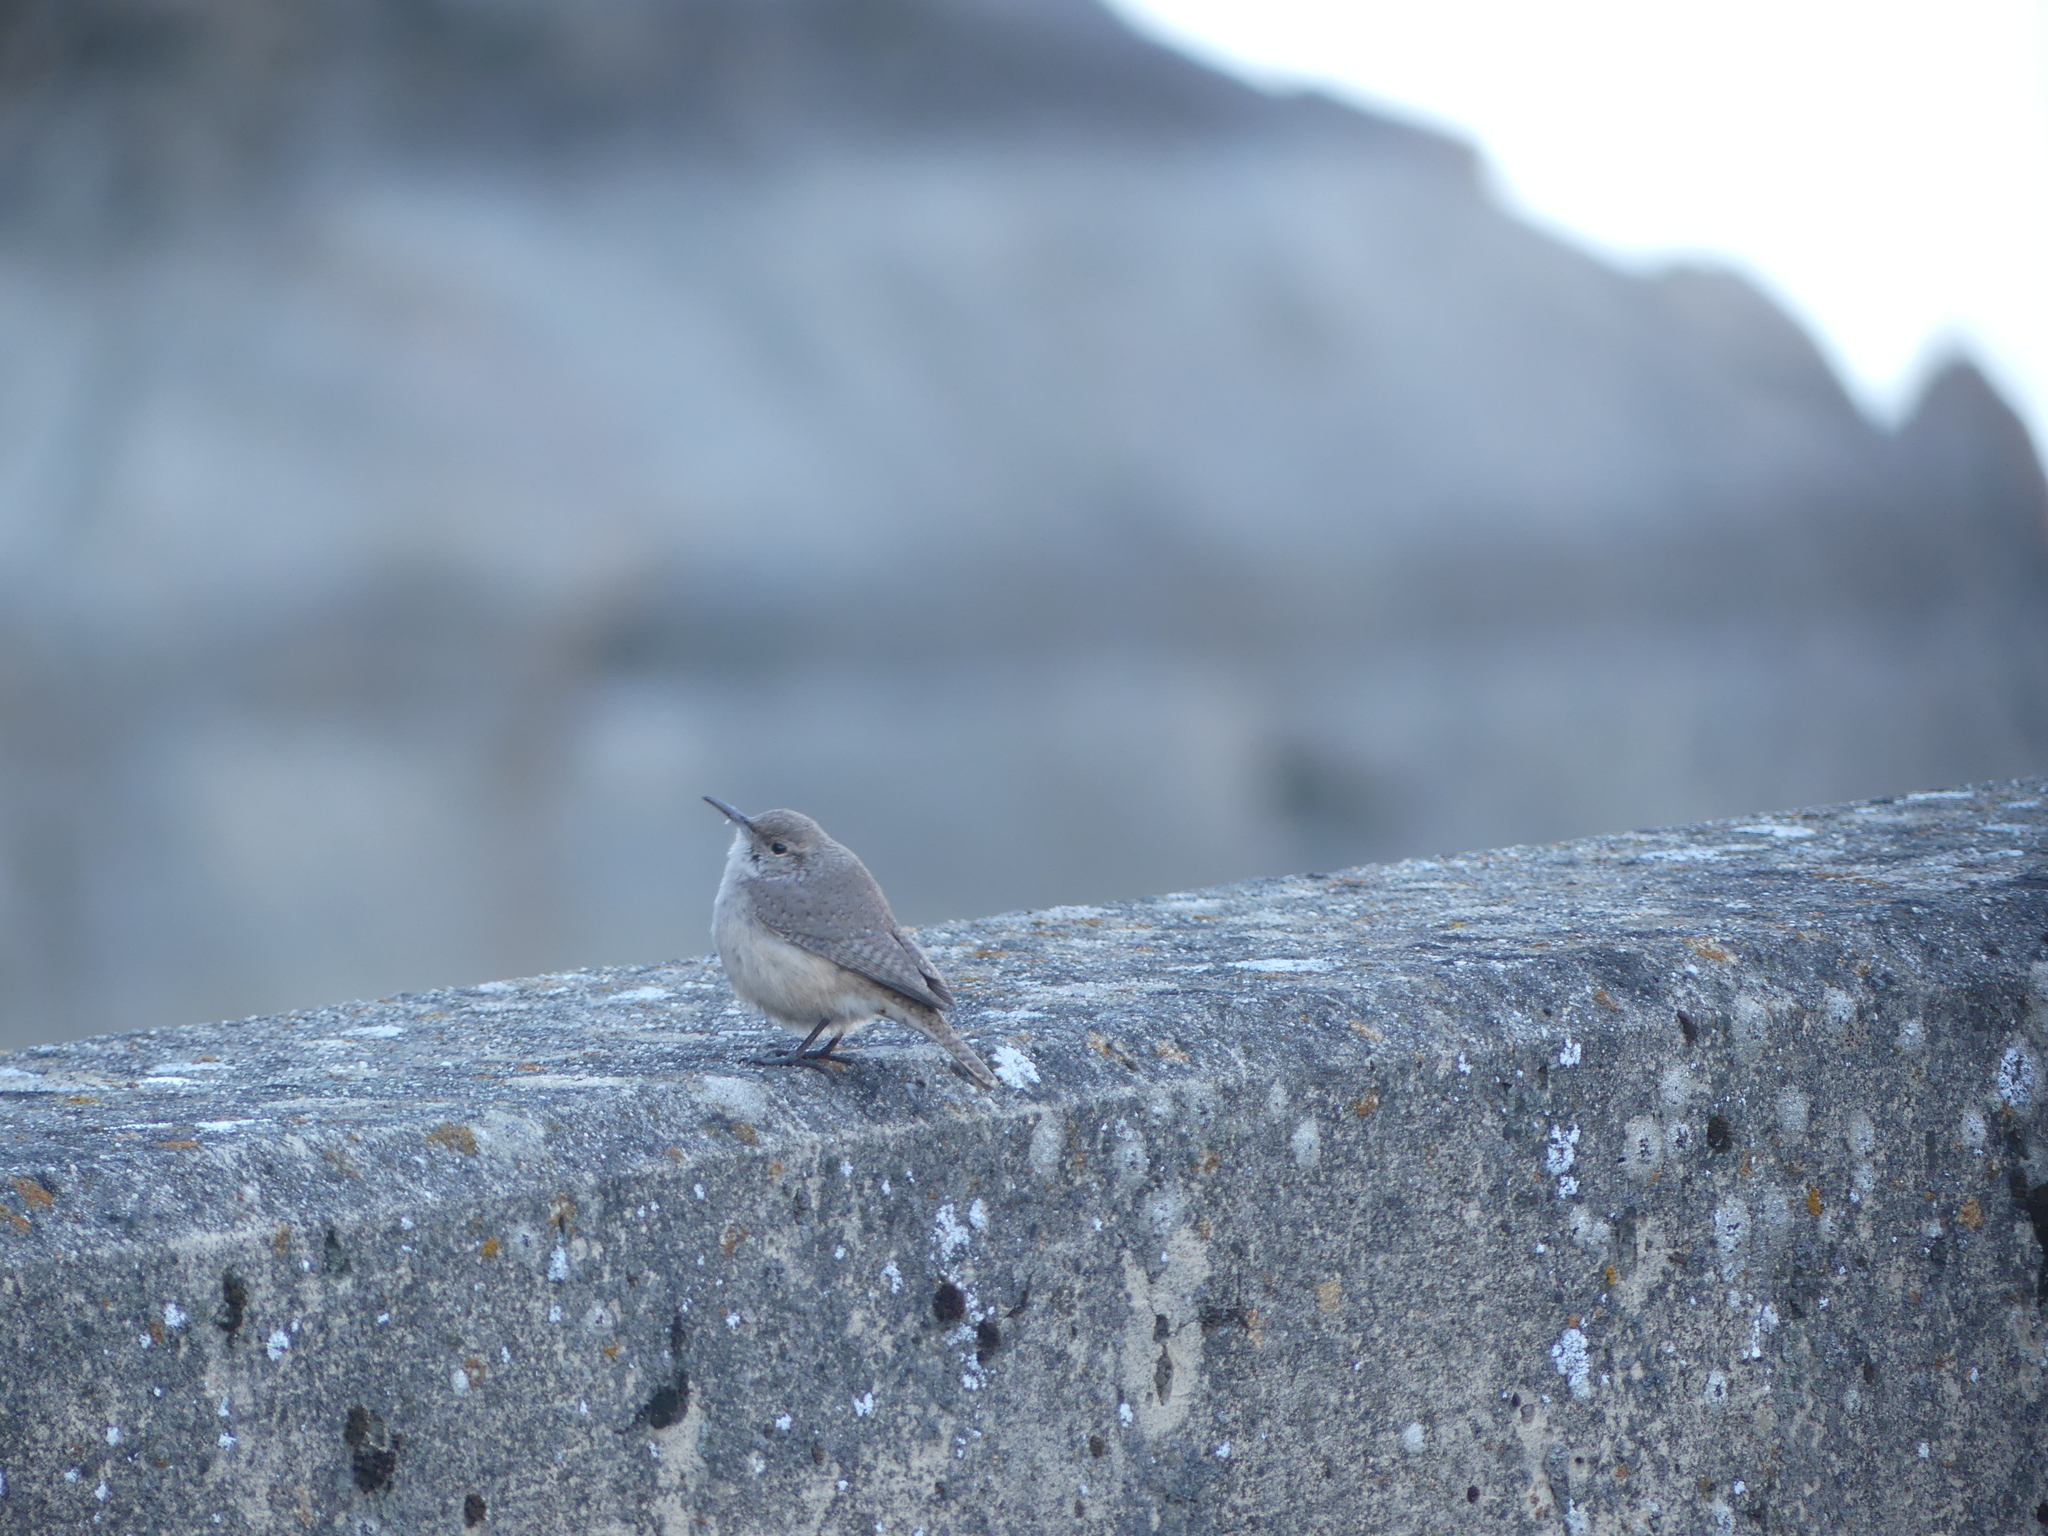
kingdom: Animalia
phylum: Chordata
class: Aves
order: Passeriformes
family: Troglodytidae
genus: Salpinctes
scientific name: Salpinctes obsoletus
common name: Rock wren
